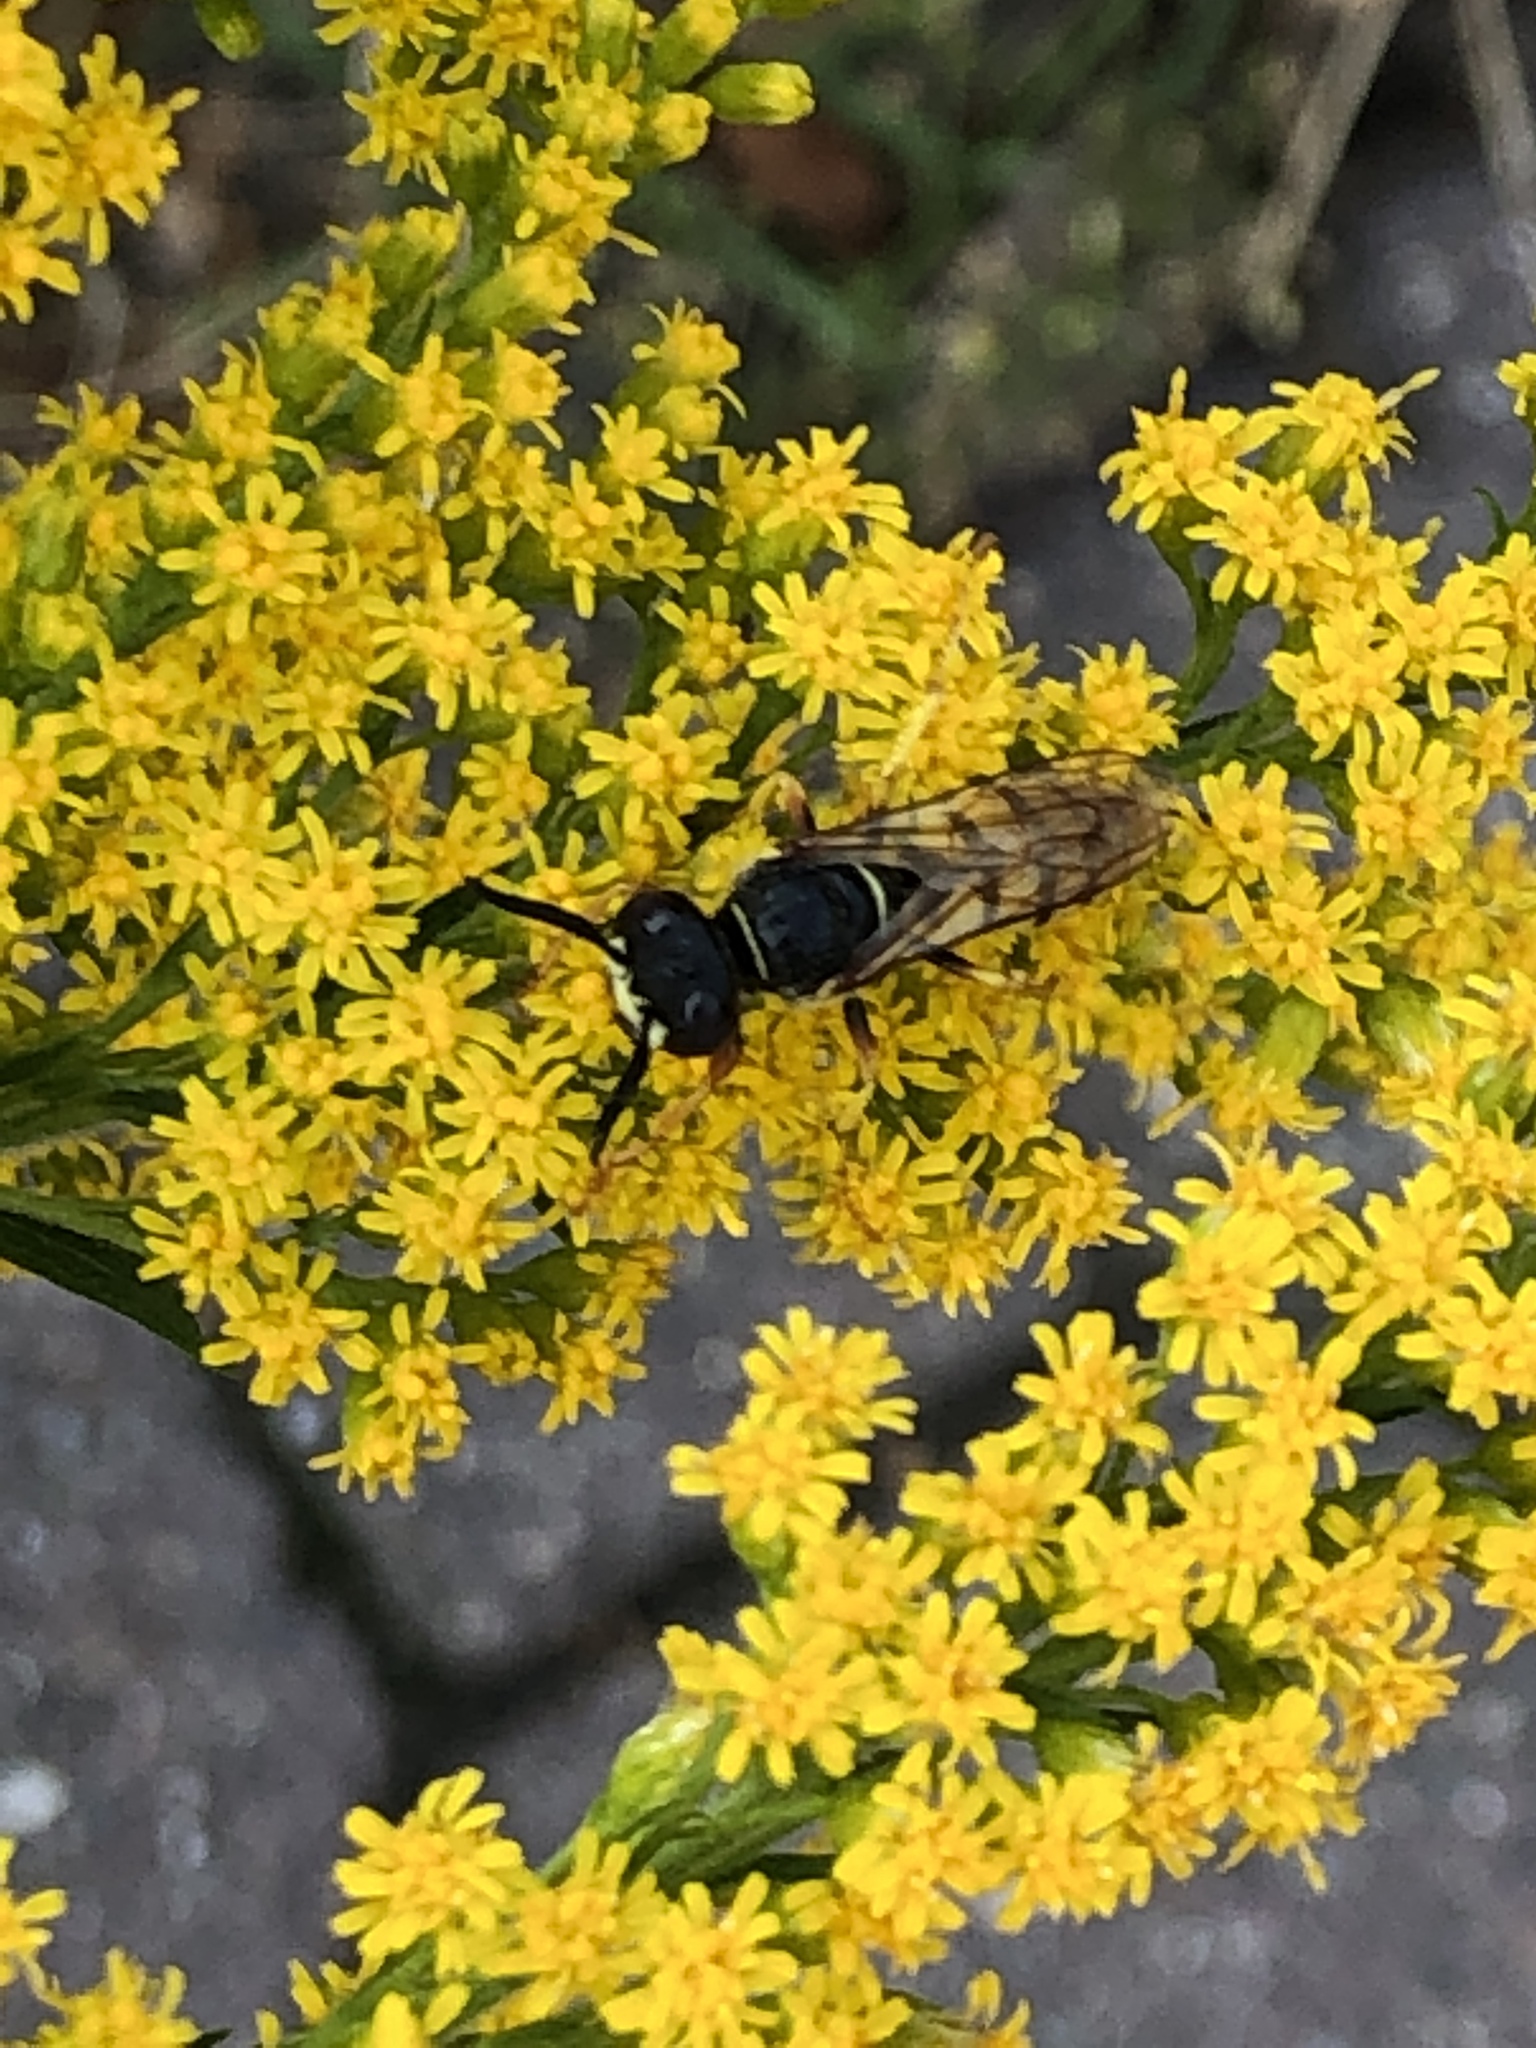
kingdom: Animalia
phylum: Arthropoda
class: Insecta
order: Hymenoptera
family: Crabronidae
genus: Philanthus
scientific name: Philanthus triangulum
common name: Bee wolf
